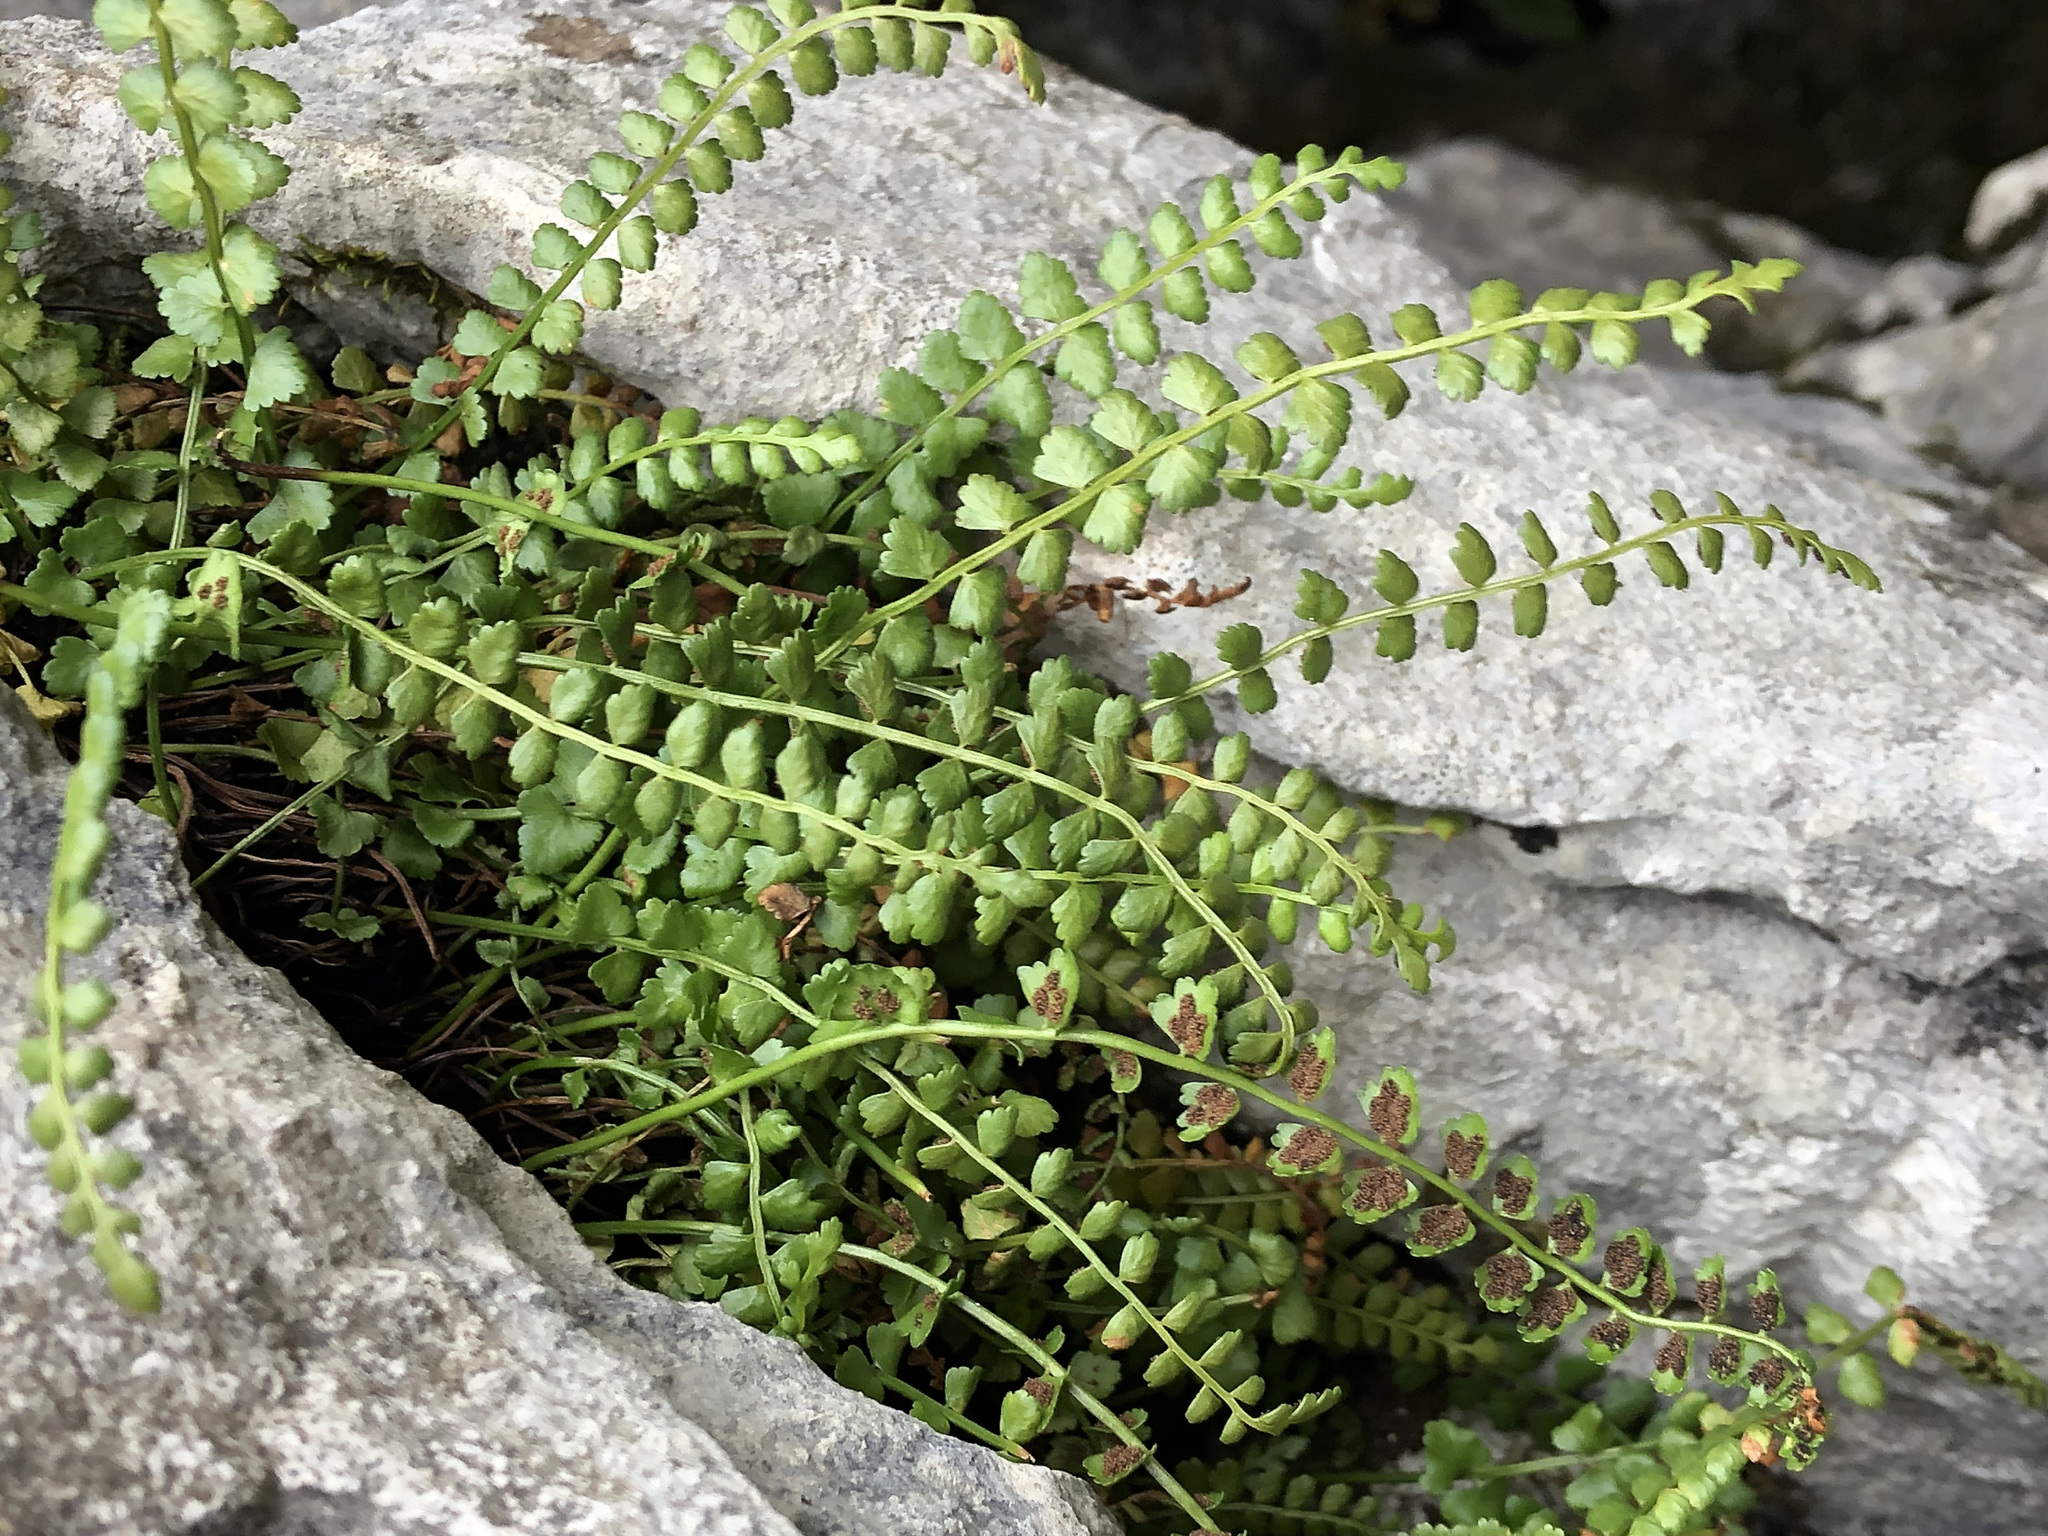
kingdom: Plantae
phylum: Tracheophyta
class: Polypodiopsida
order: Polypodiales
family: Aspleniaceae
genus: Asplenium
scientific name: Asplenium viride
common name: Green spleenwort
